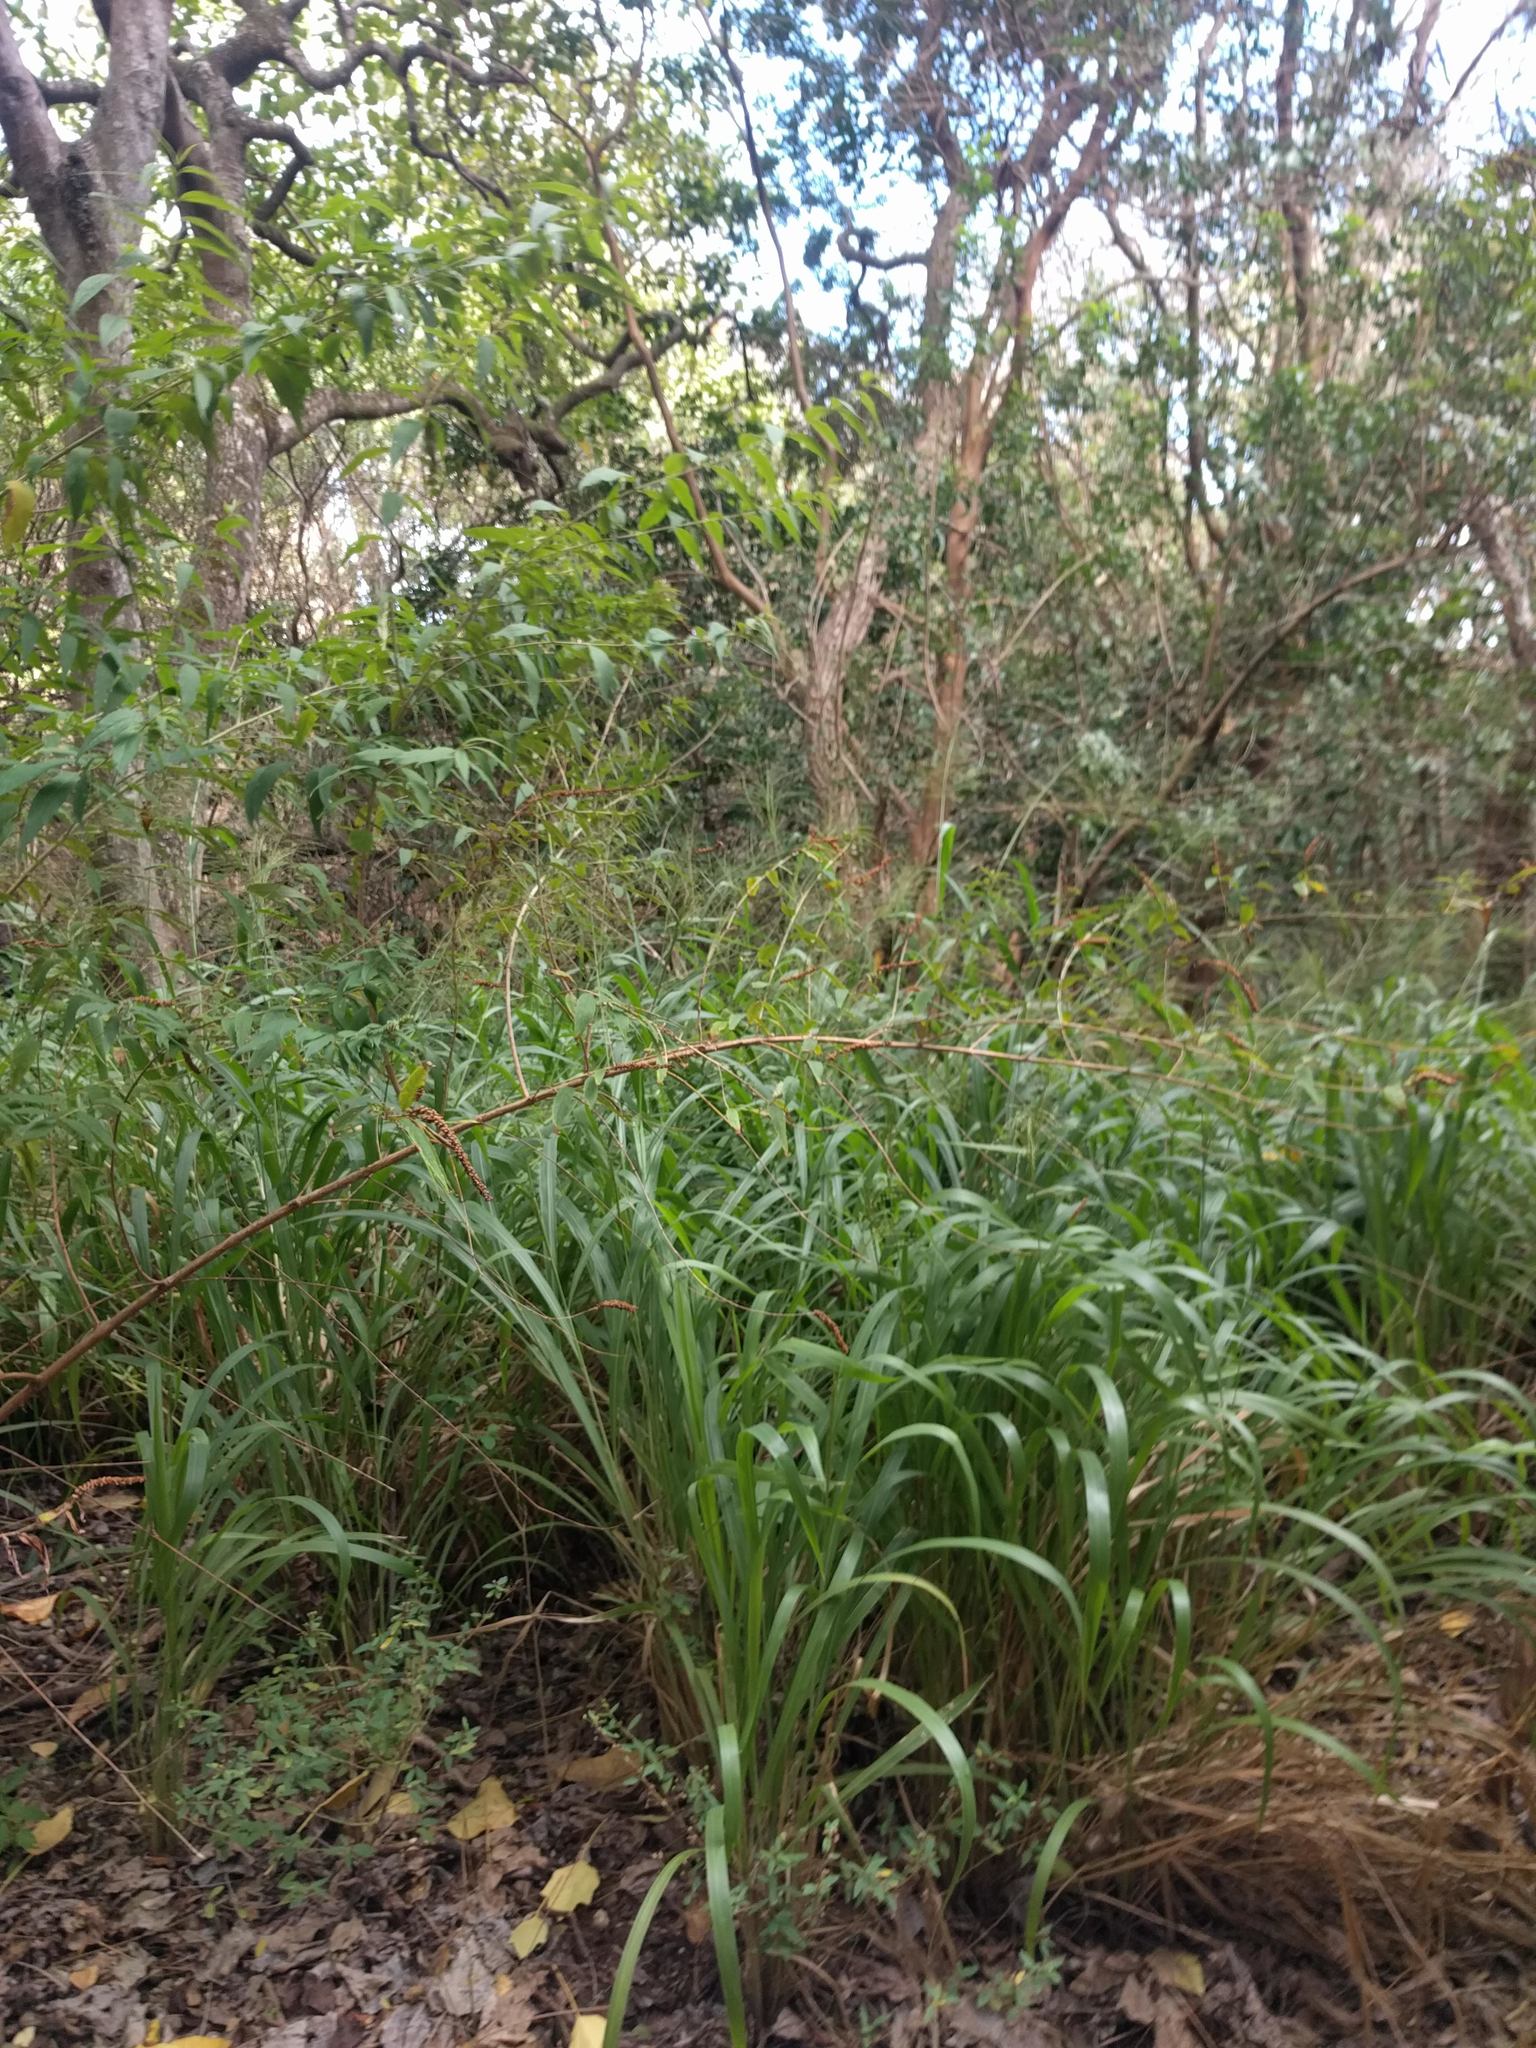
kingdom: Plantae
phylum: Tracheophyta
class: Liliopsida
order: Poales
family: Poaceae
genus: Megathyrsus
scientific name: Megathyrsus maximus
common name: Guineagrass
